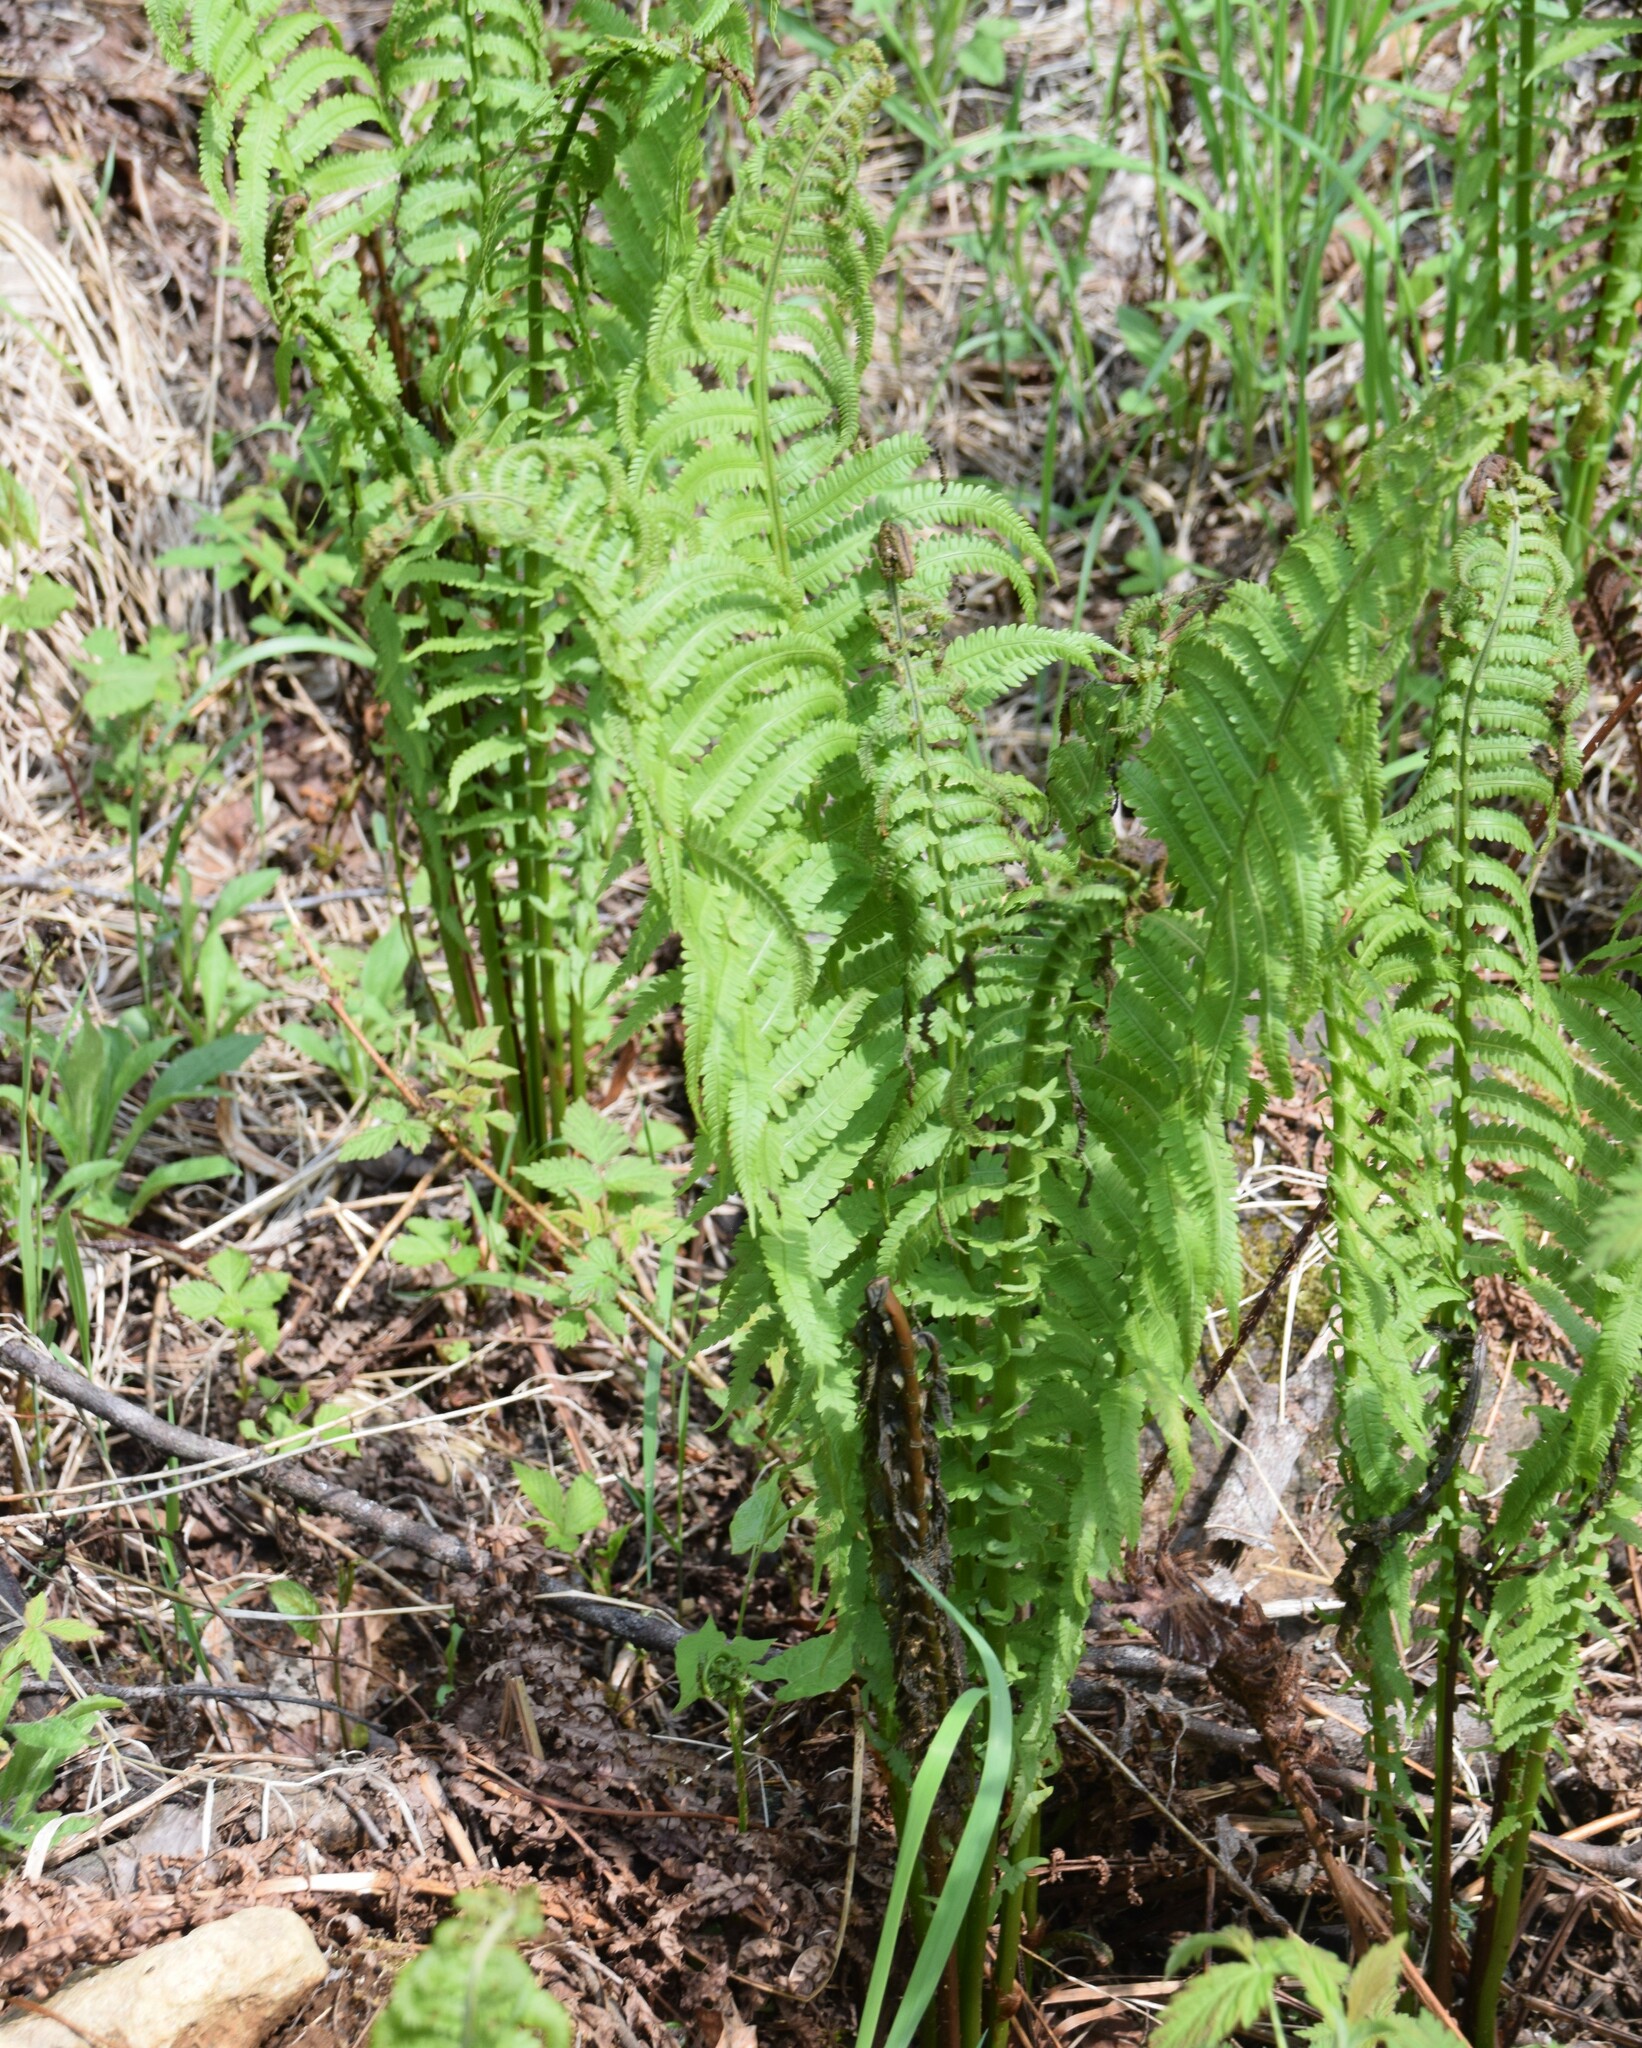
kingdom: Plantae
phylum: Tracheophyta
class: Polypodiopsida
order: Polypodiales
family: Onocleaceae
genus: Matteuccia
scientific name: Matteuccia struthiopteris
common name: Ostrich fern
